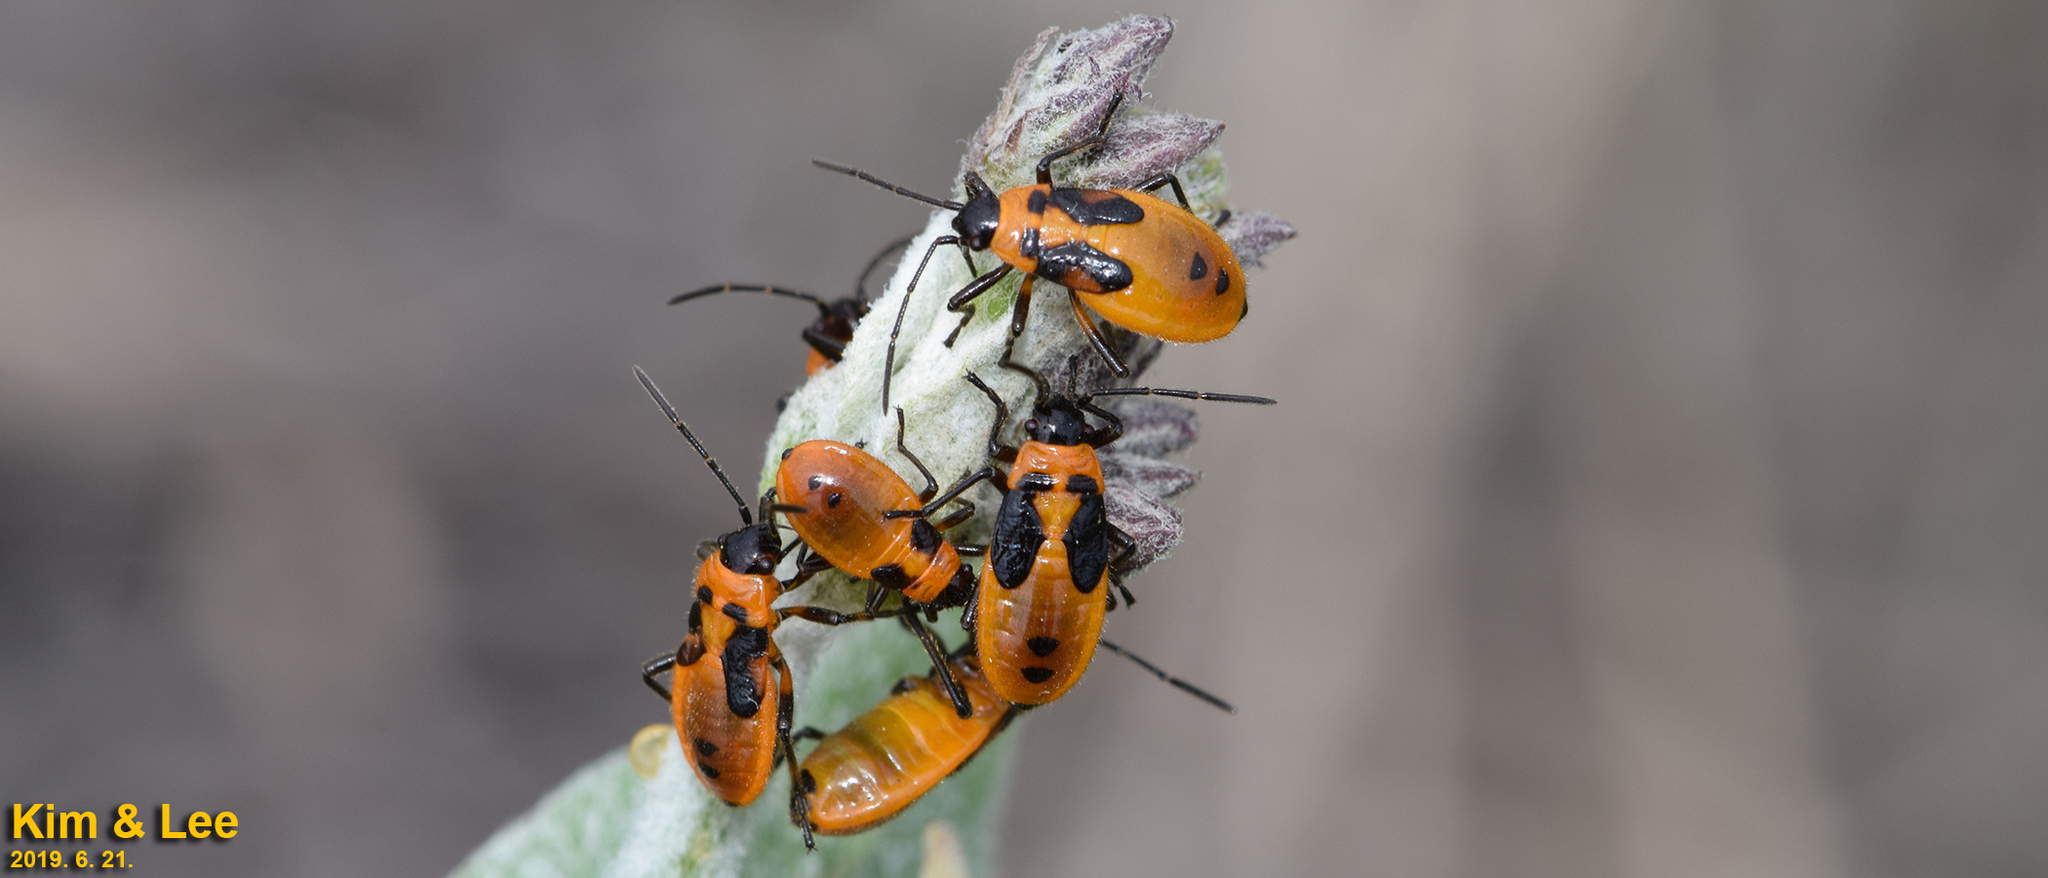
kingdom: Animalia
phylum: Arthropoda
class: Insecta
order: Hemiptera
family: Lygaeidae
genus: Tropidothorax
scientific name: Tropidothorax cruciger
